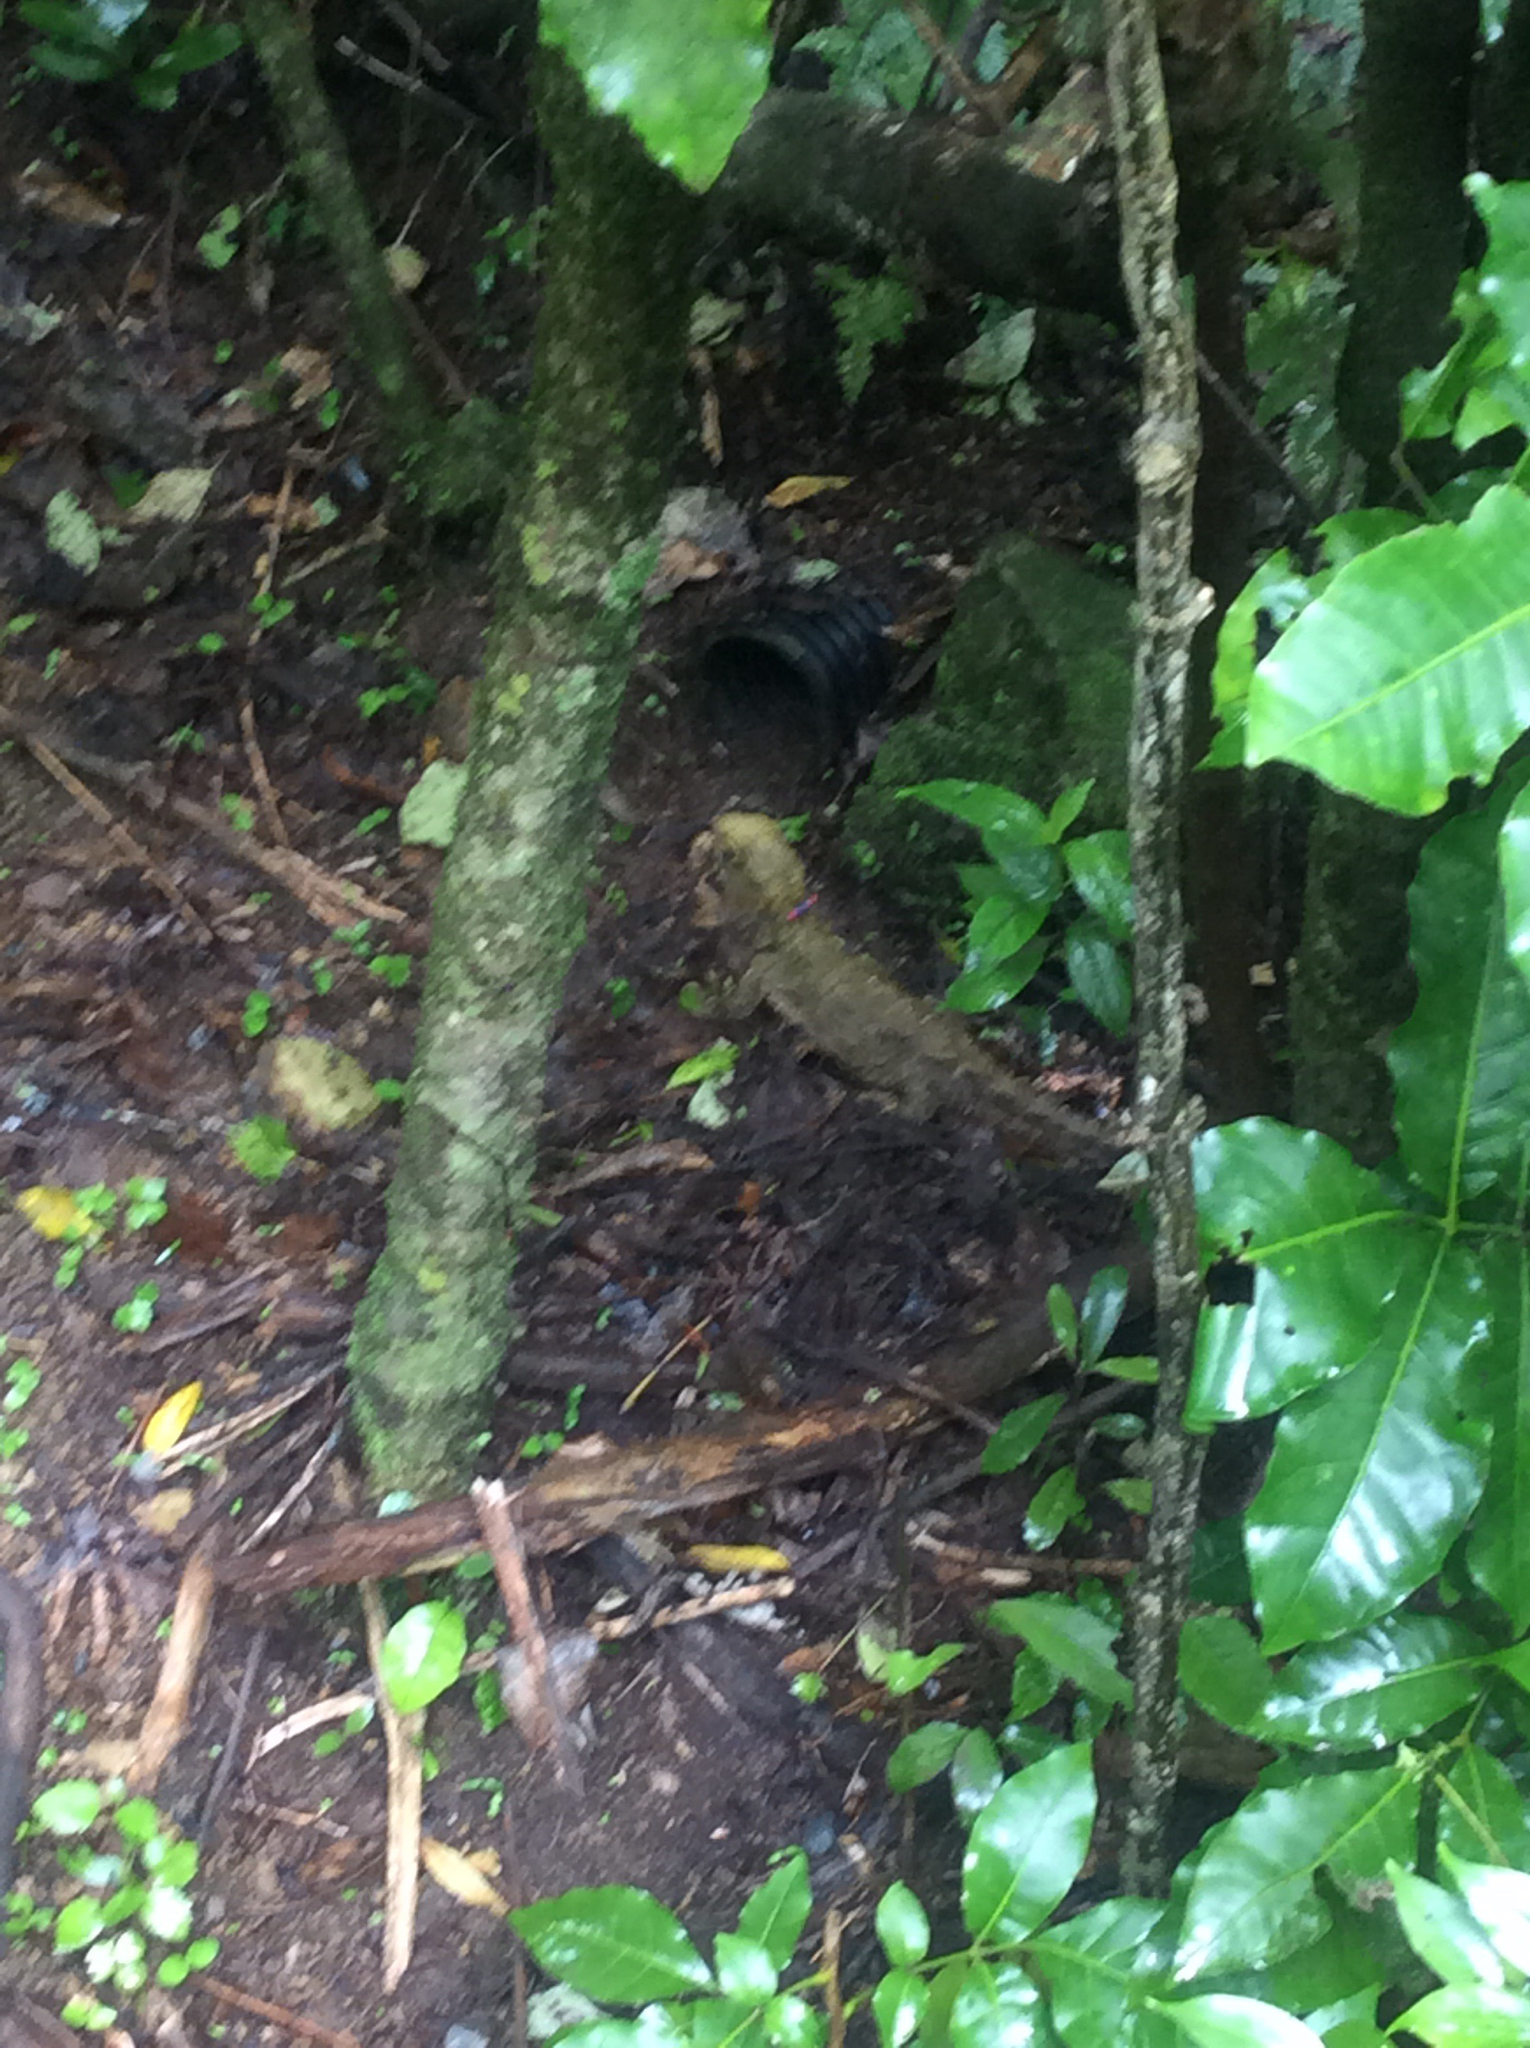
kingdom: Animalia
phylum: Chordata
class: Sphenodontia
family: Sphenodontidae
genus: Sphenodon
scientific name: Sphenodon punctatus
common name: Tuatara
